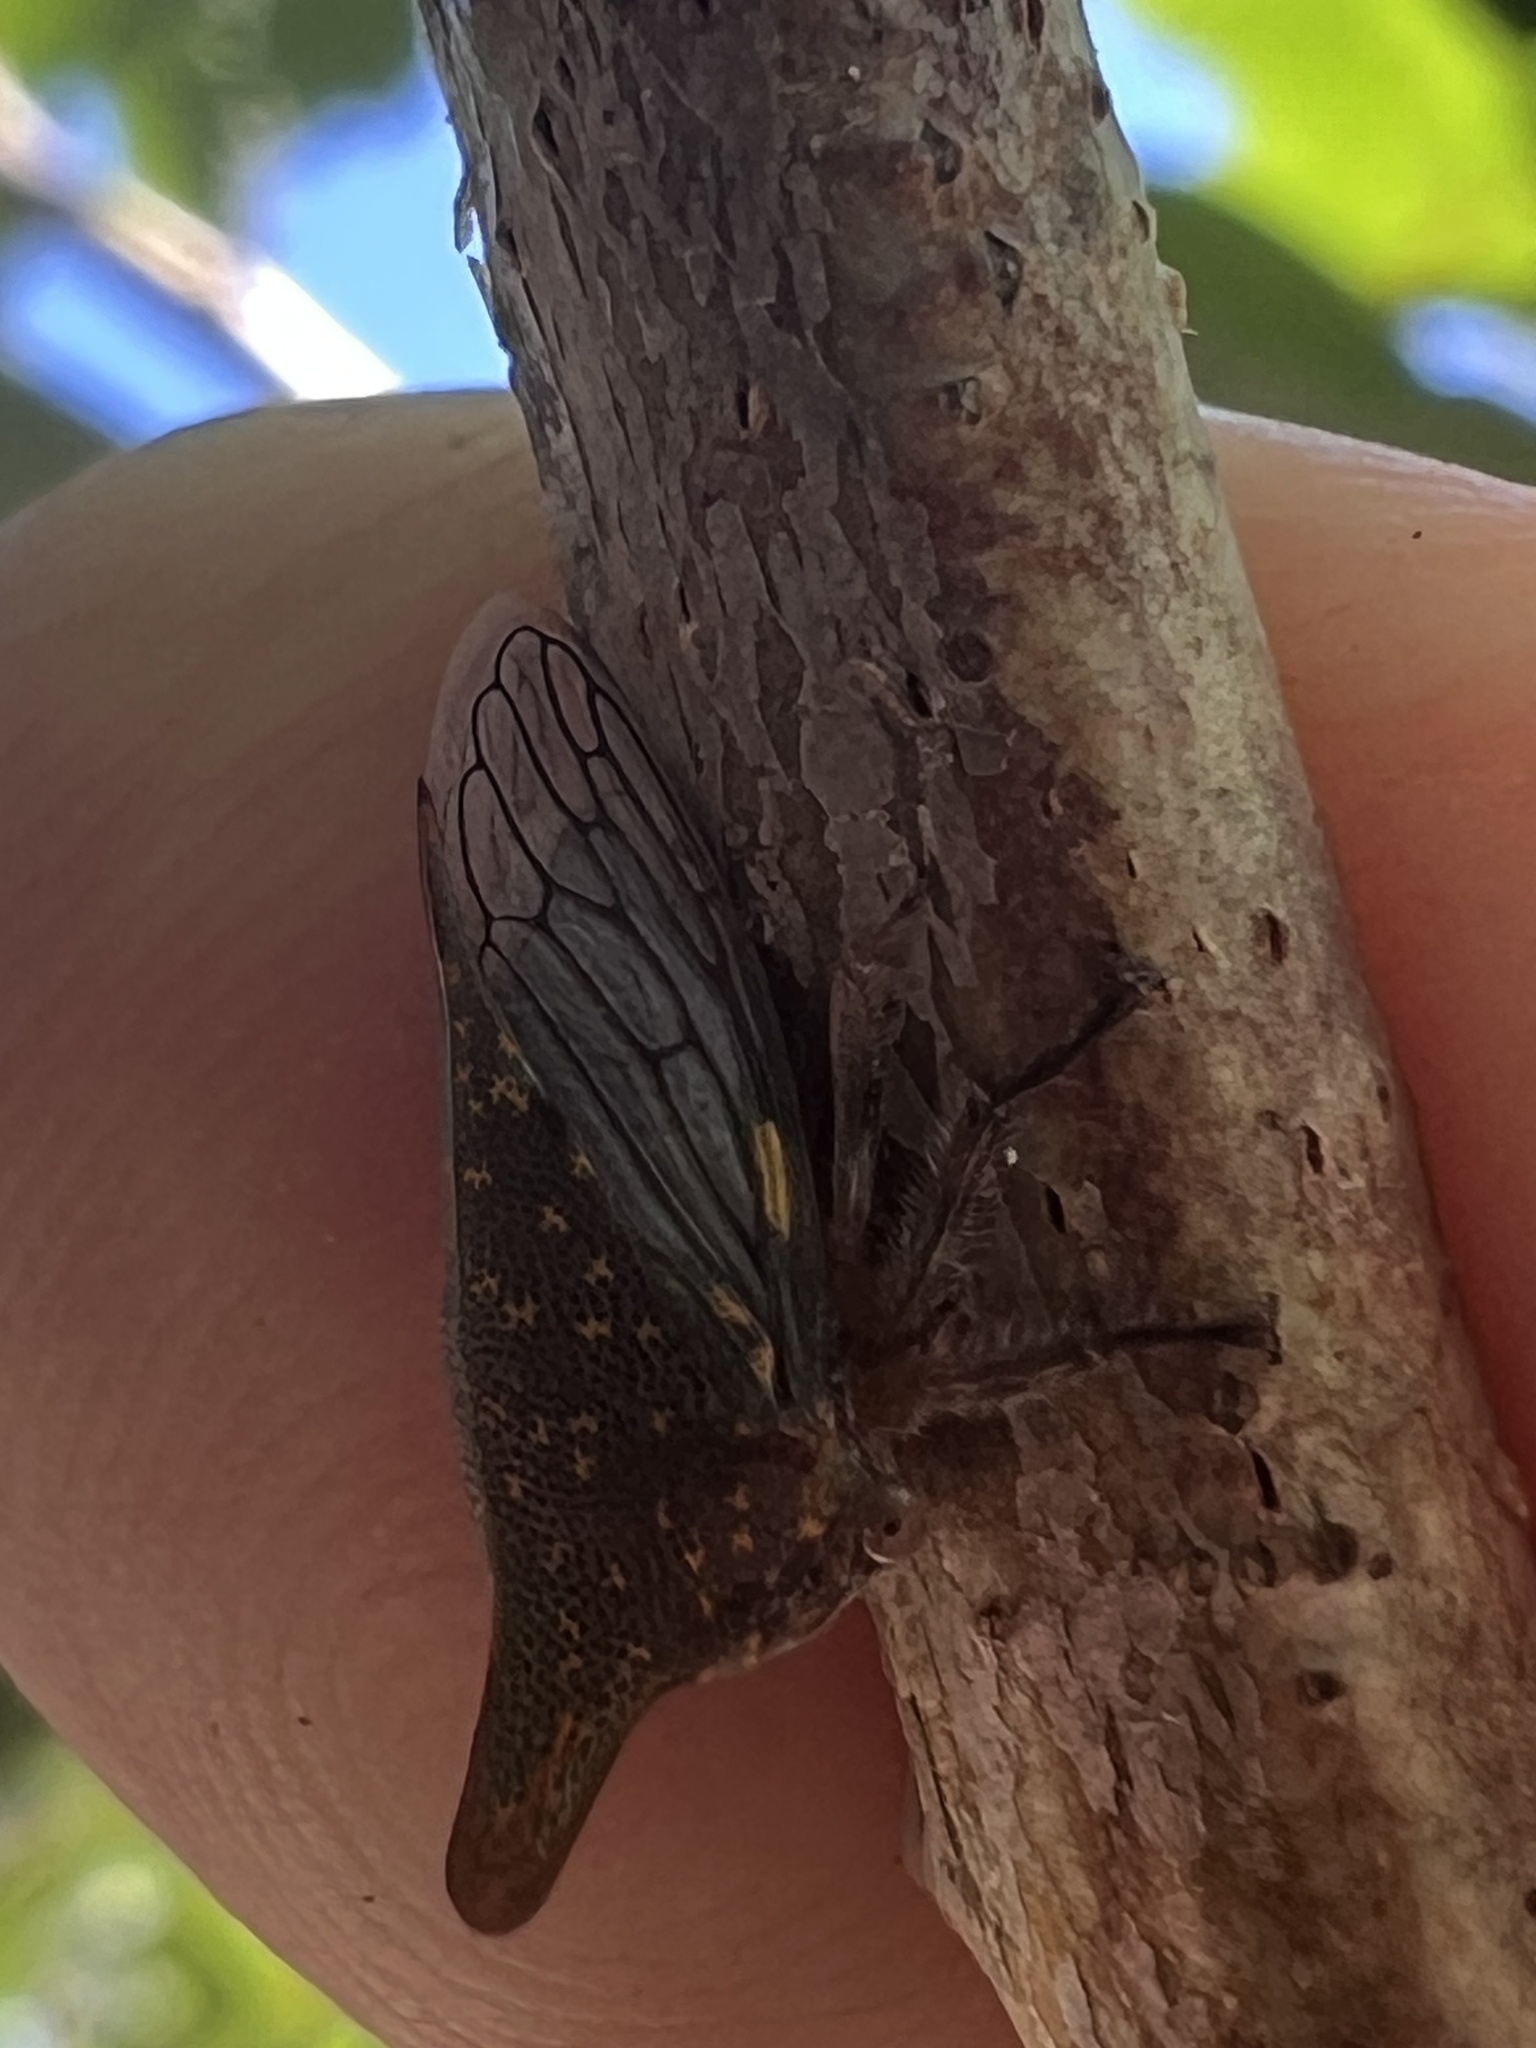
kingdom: Animalia
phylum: Arthropoda
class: Insecta
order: Hemiptera
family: Membracidae
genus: Platycotis
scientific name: Platycotis vittatus
